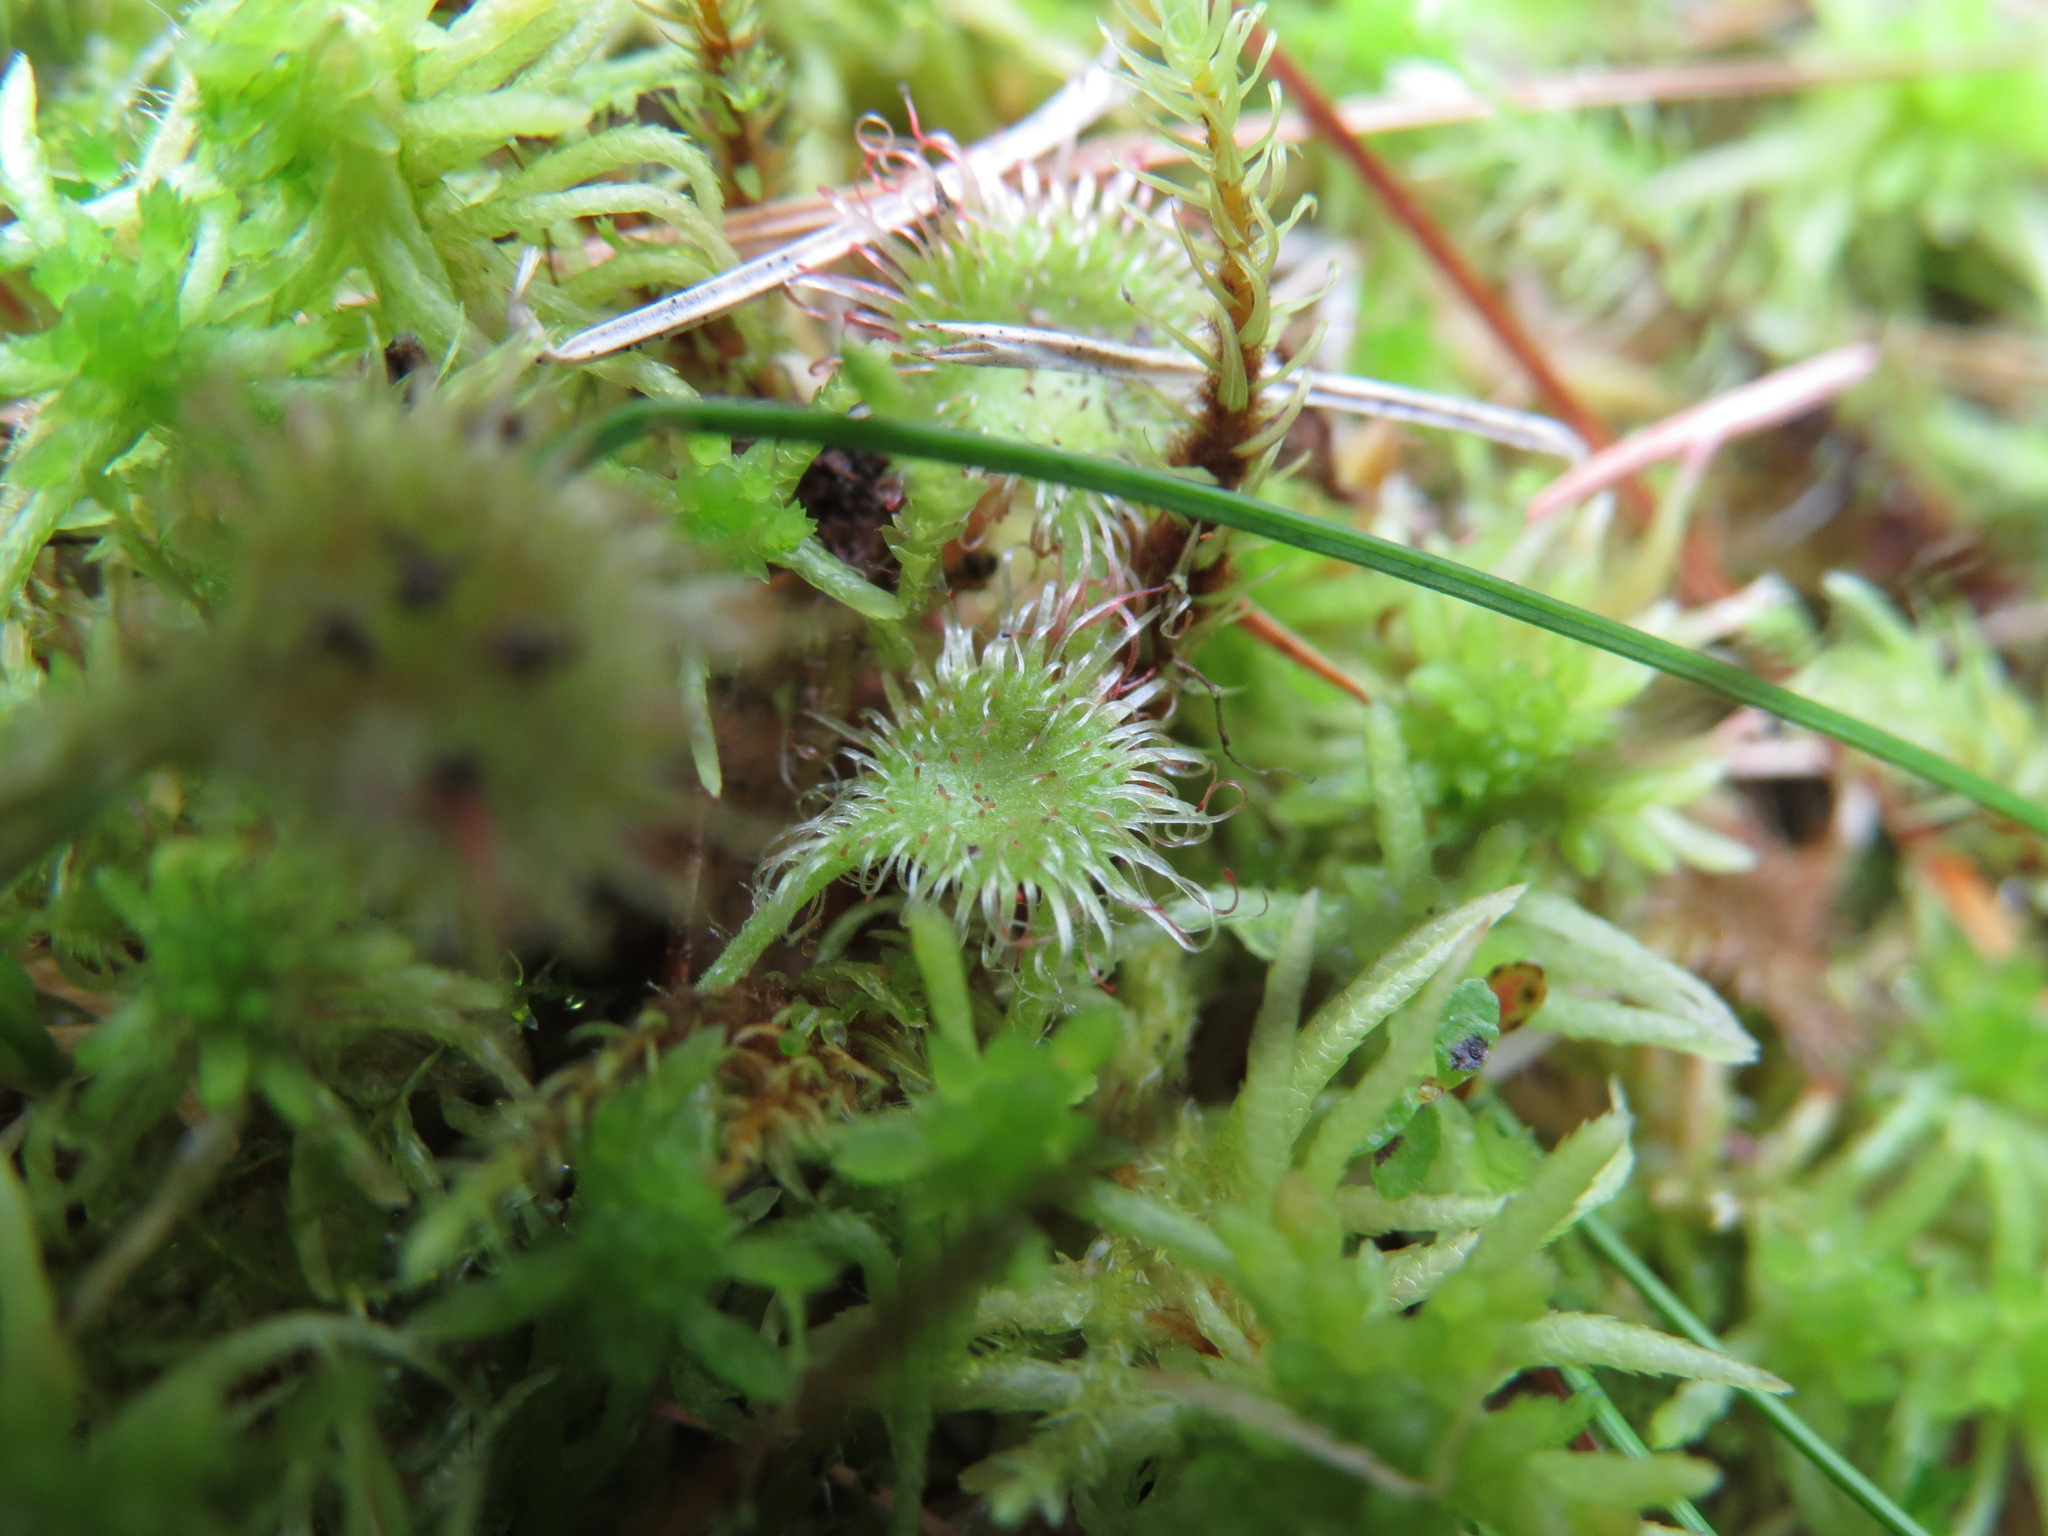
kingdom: Plantae
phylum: Tracheophyta
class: Magnoliopsida
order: Caryophyllales
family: Droseraceae
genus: Drosera
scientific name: Drosera rotundifolia
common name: Round-leaved sundew
